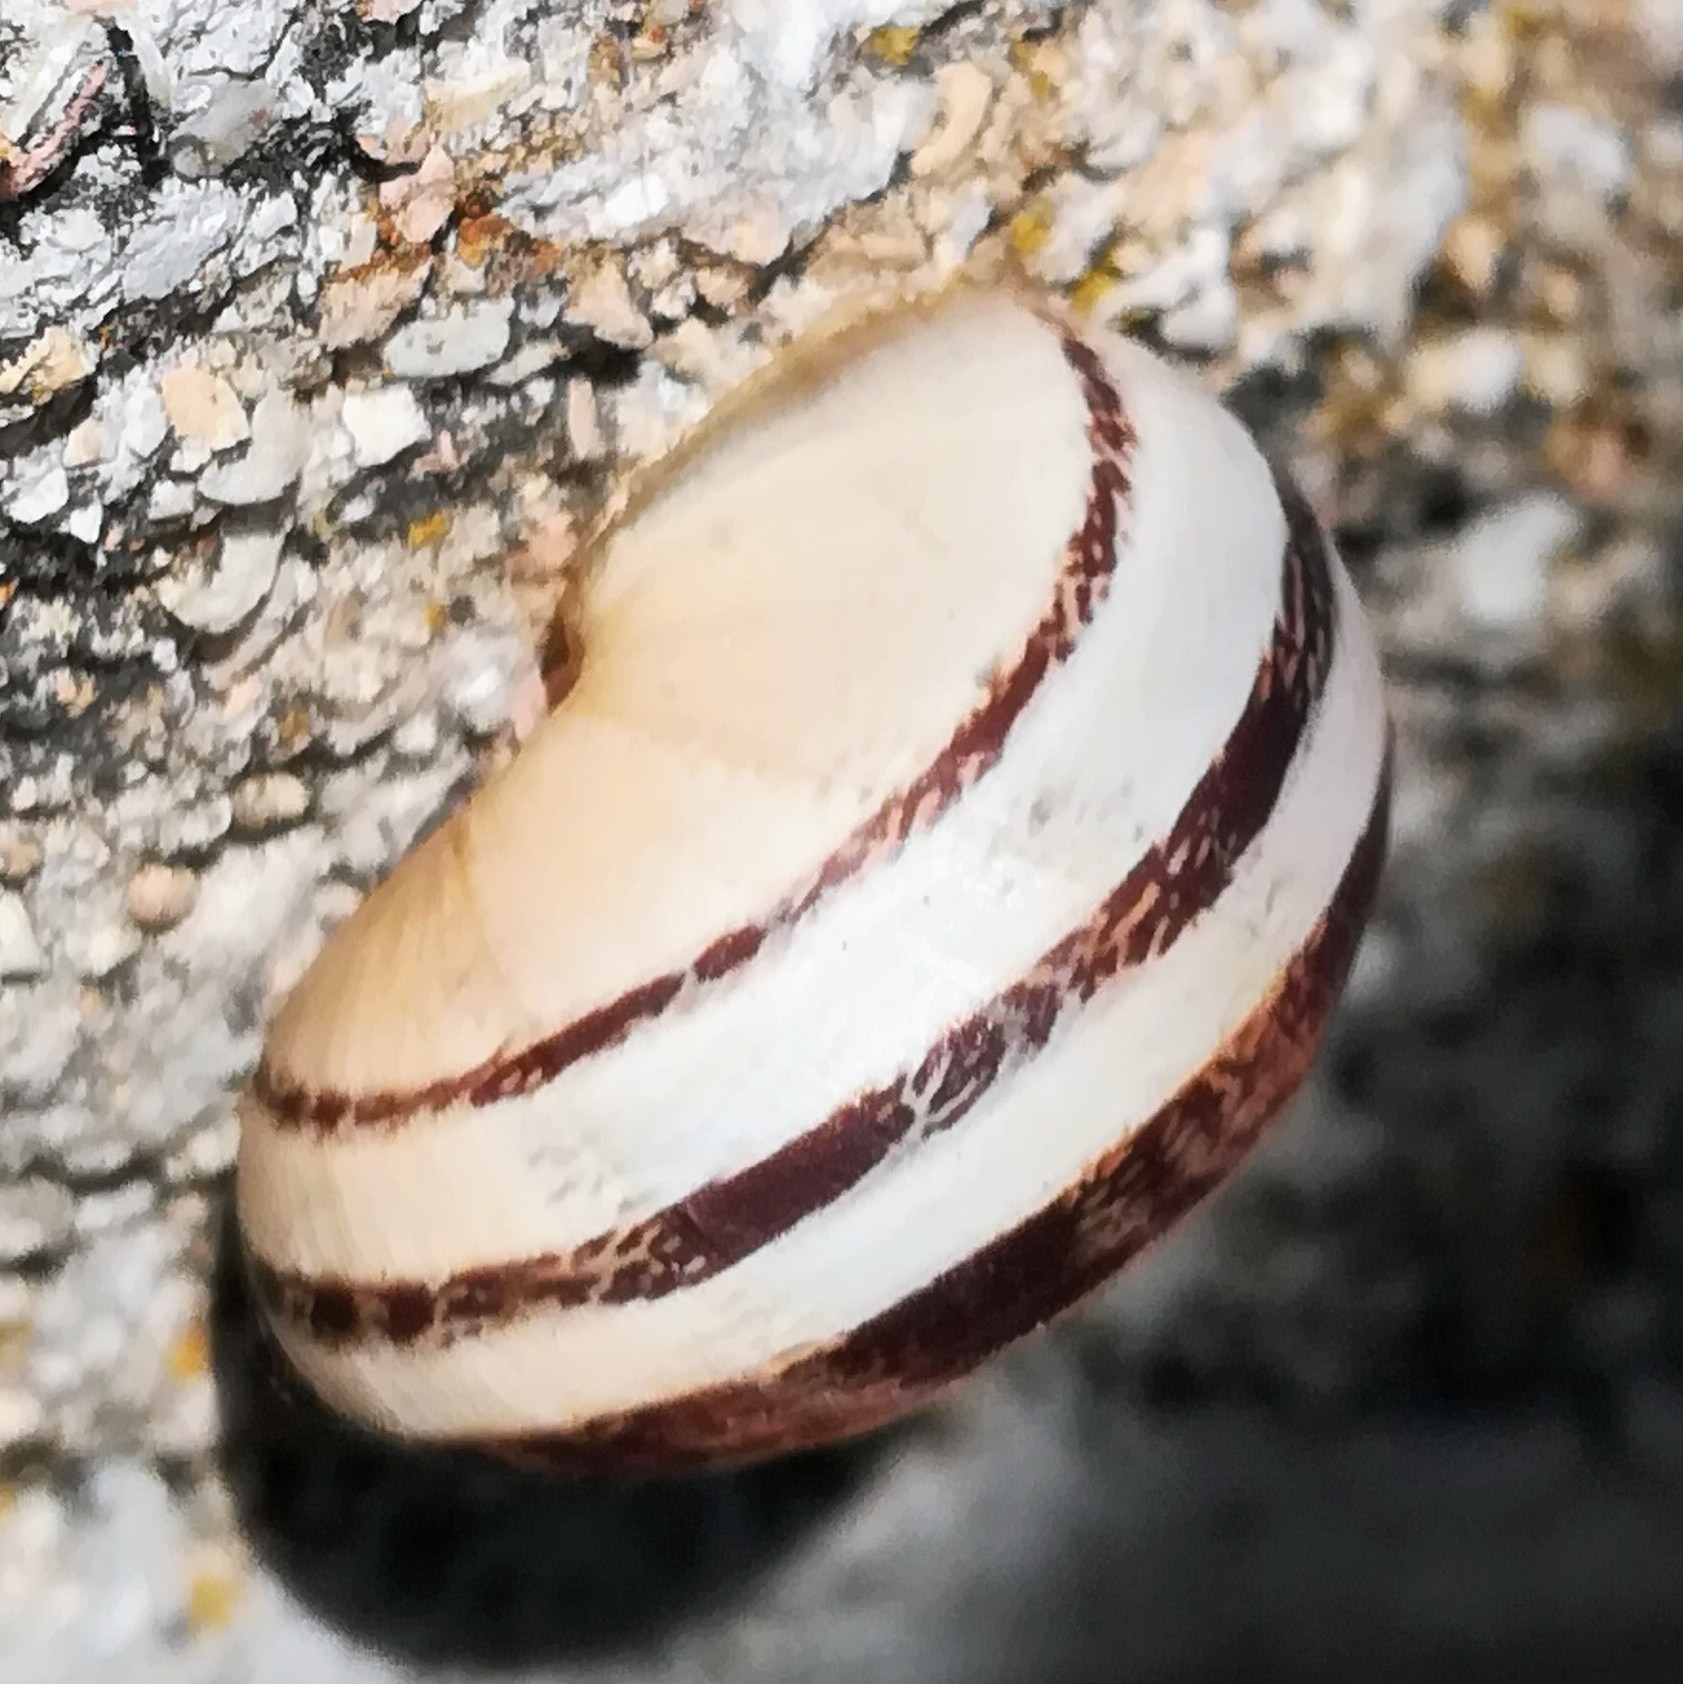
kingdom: Animalia
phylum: Mollusca
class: Gastropoda
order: Stylommatophora
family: Helicidae
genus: Eobania
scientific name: Eobania vermiculata
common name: Chocolateband snail
